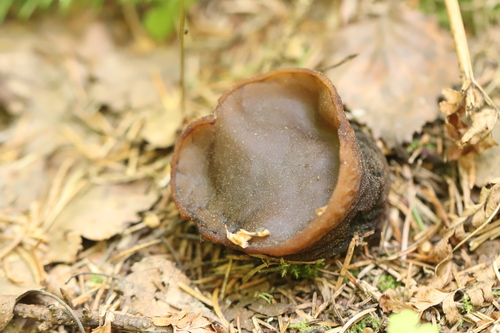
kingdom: Fungi
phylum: Ascomycota
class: Pezizomycetes
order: Pezizales
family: Sarcosomataceae
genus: Sarcosoma
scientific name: Sarcosoma globosum
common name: Charred-pancake cup
